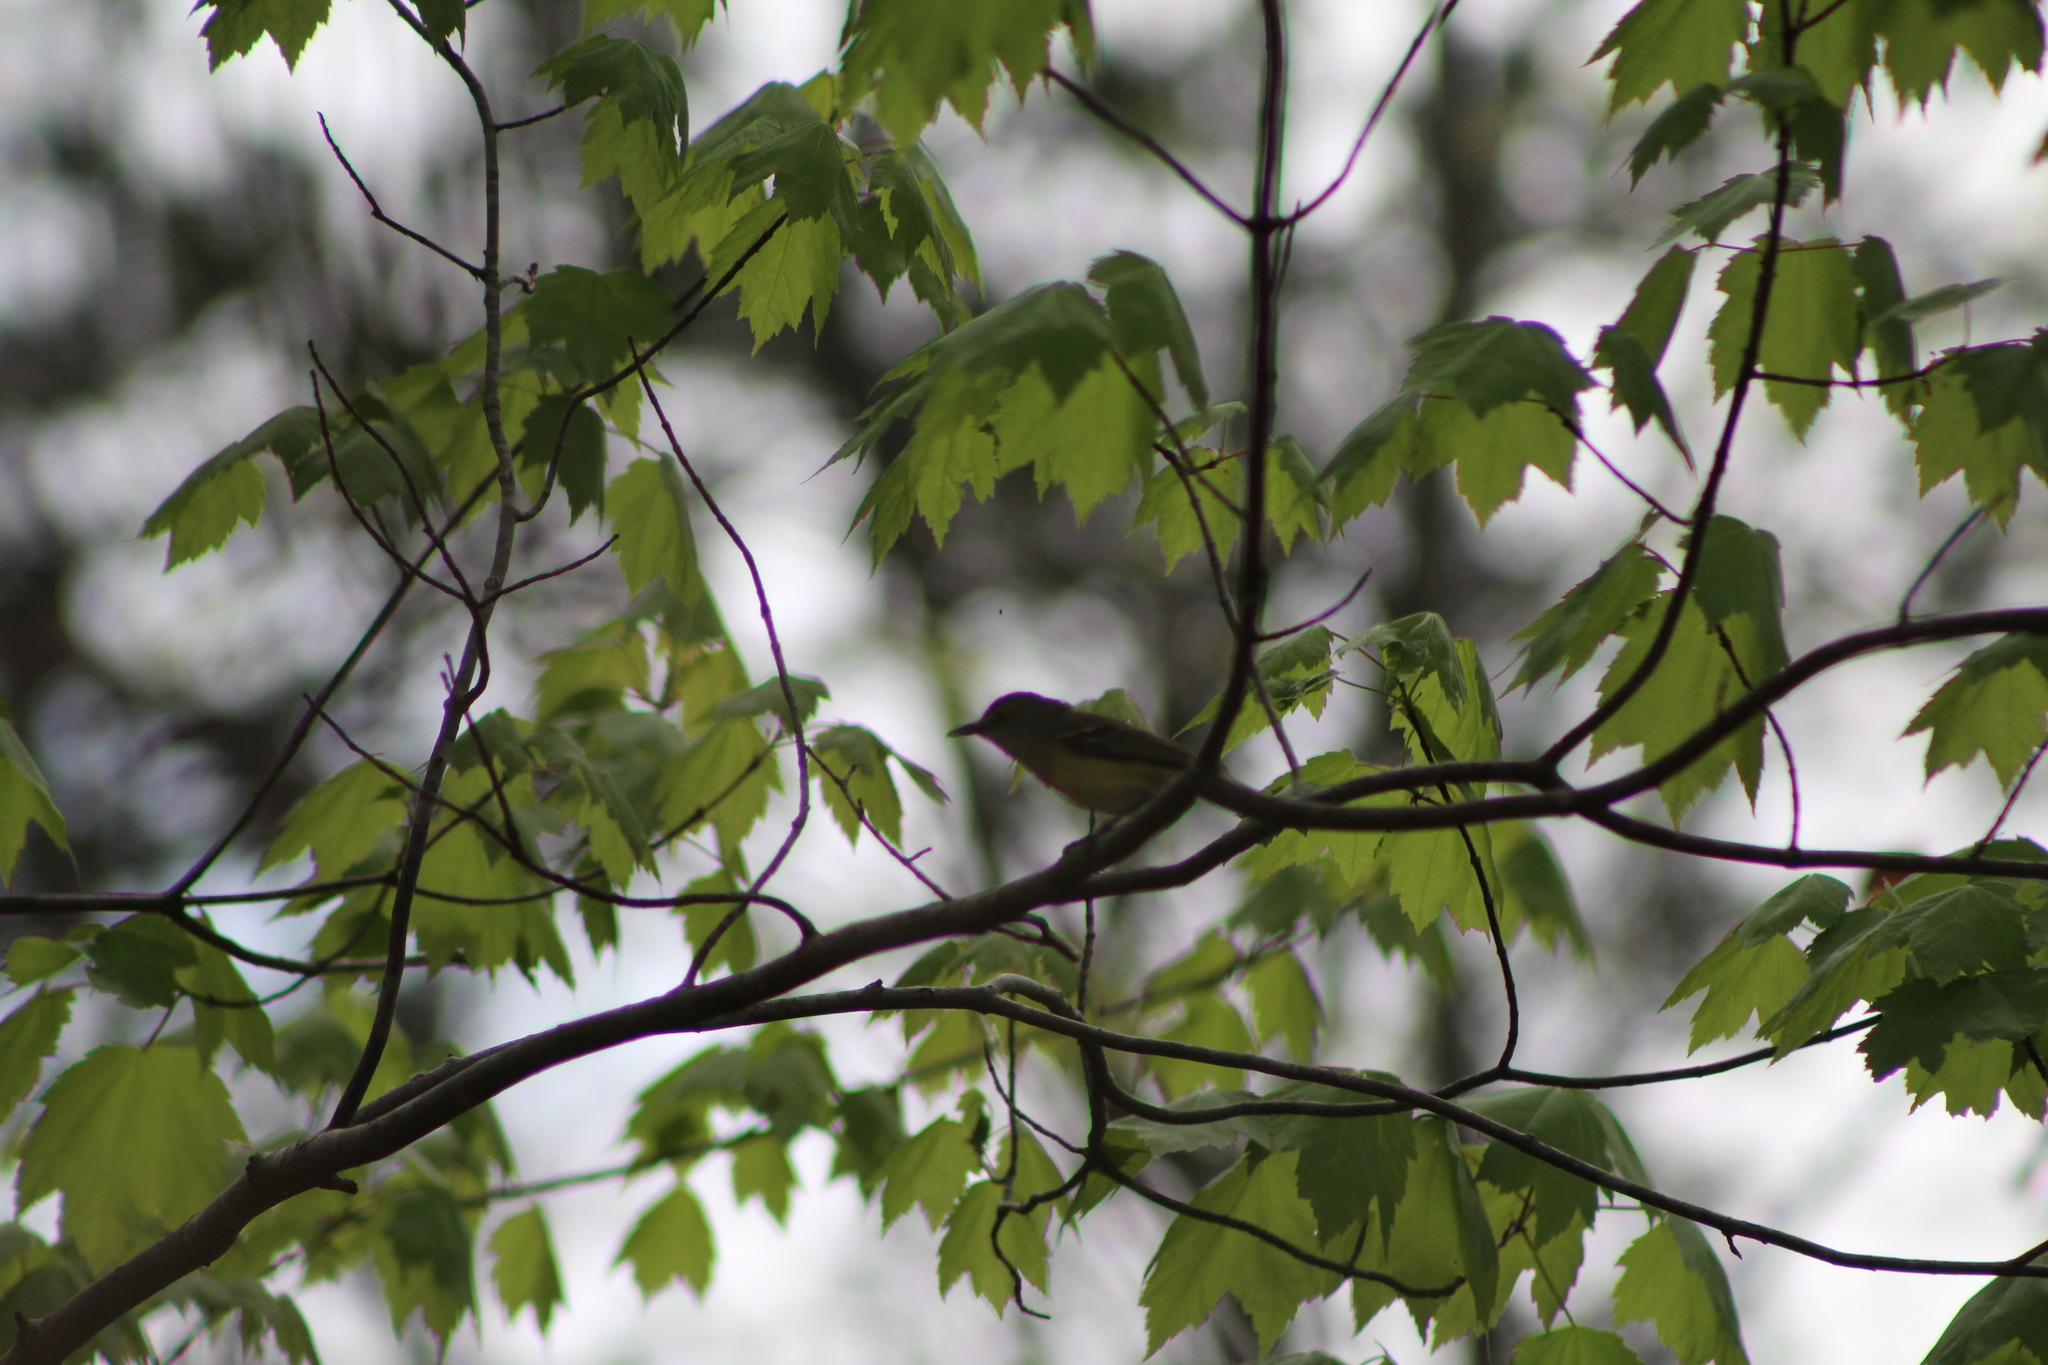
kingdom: Animalia
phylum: Chordata
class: Aves
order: Passeriformes
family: Vireonidae
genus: Vireo
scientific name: Vireo griseus
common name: White-eyed vireo
